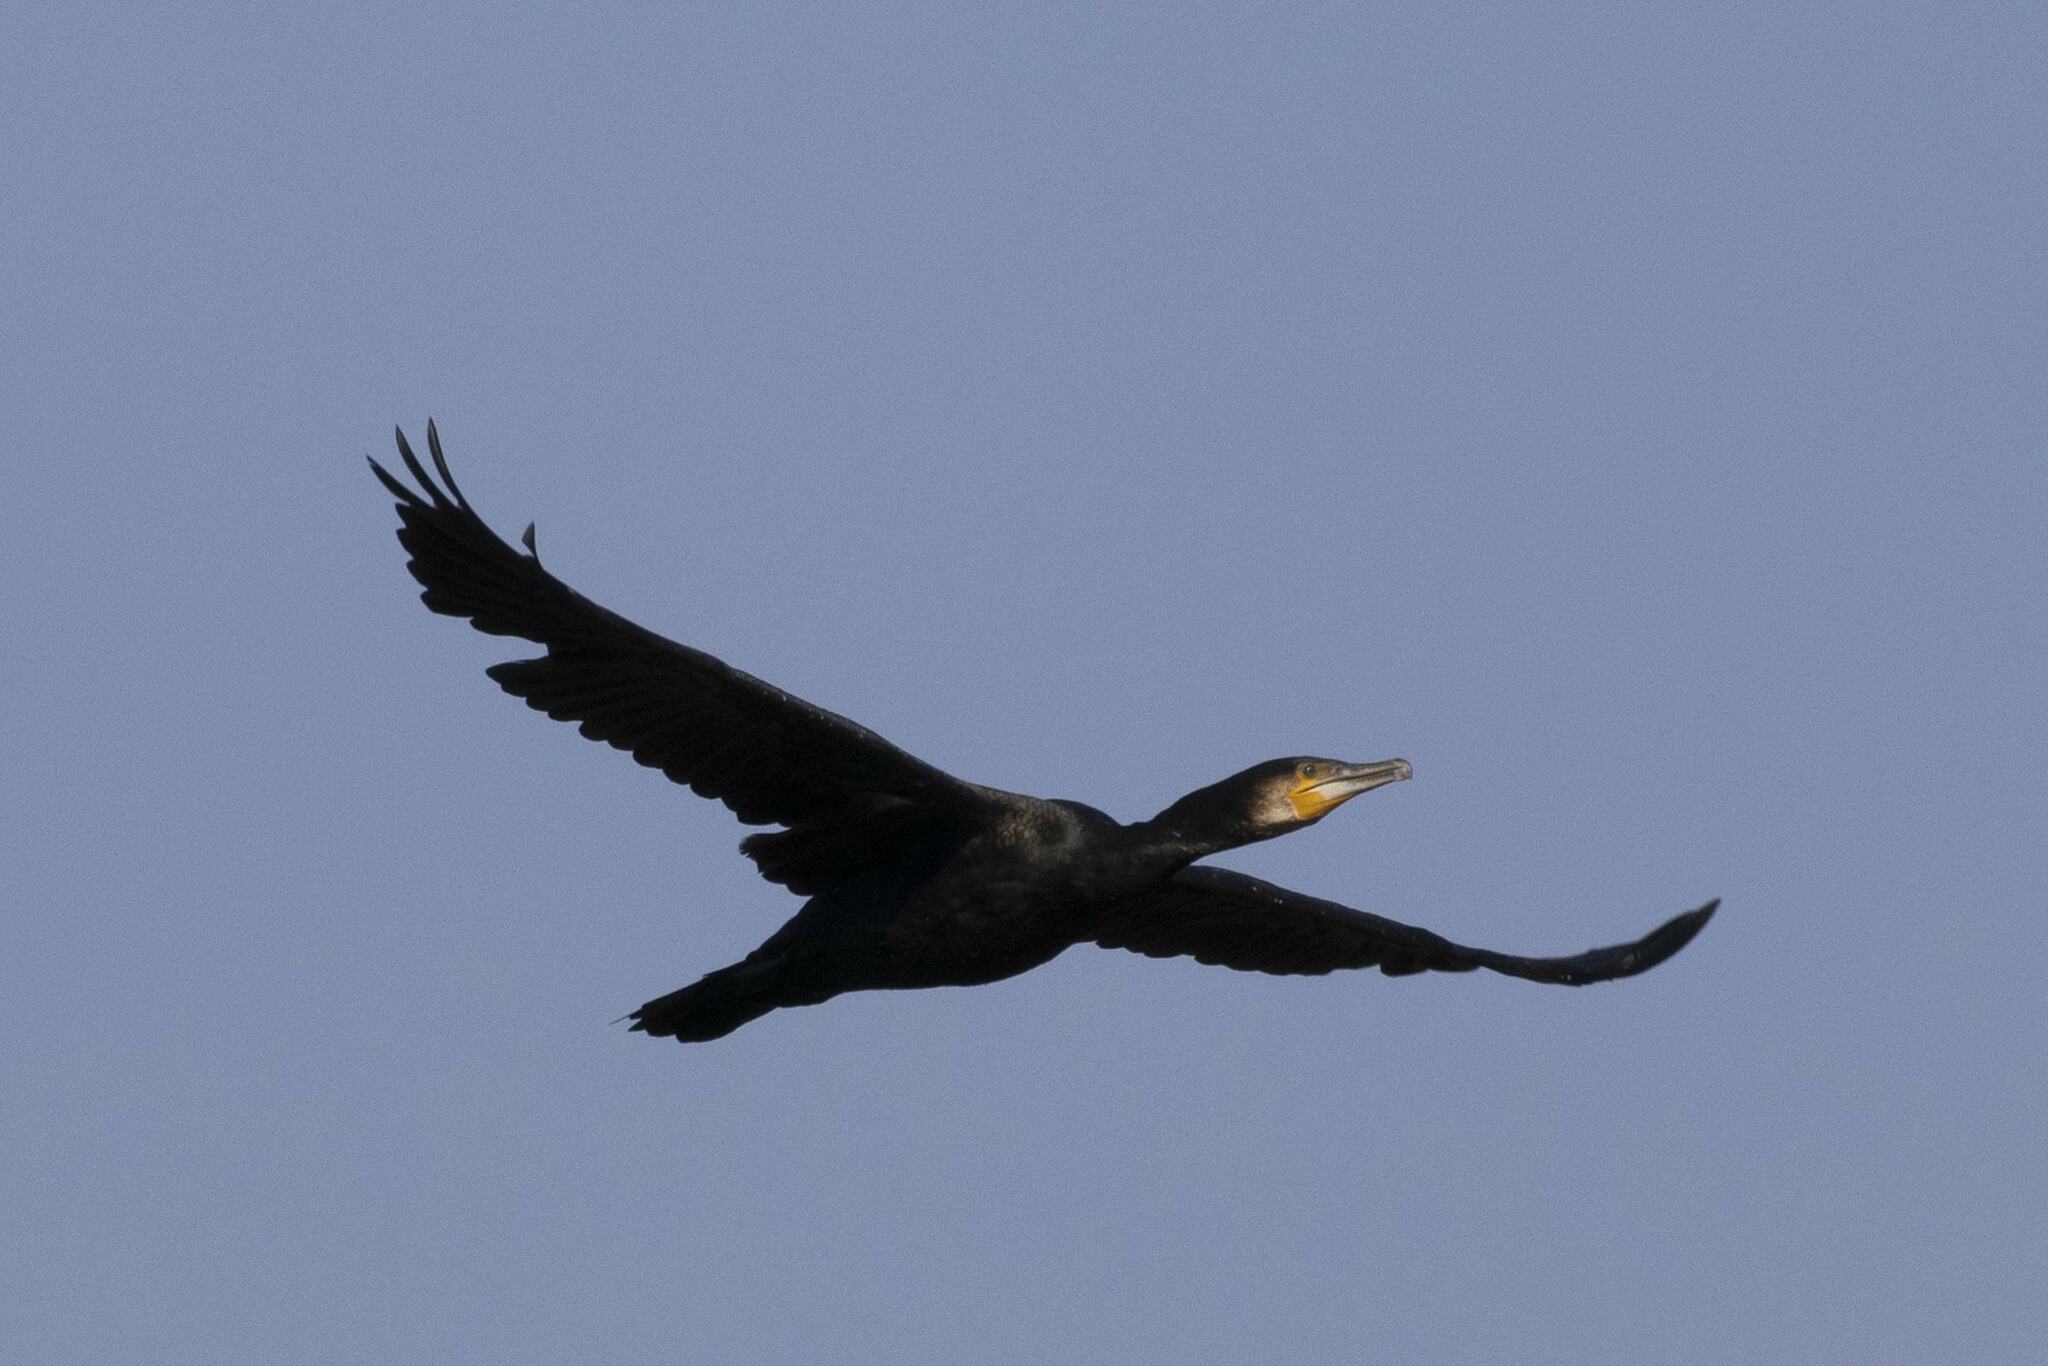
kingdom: Animalia
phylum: Chordata
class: Aves
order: Suliformes
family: Phalacrocoracidae
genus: Phalacrocorax
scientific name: Phalacrocorax carbo
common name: Great cormorant
